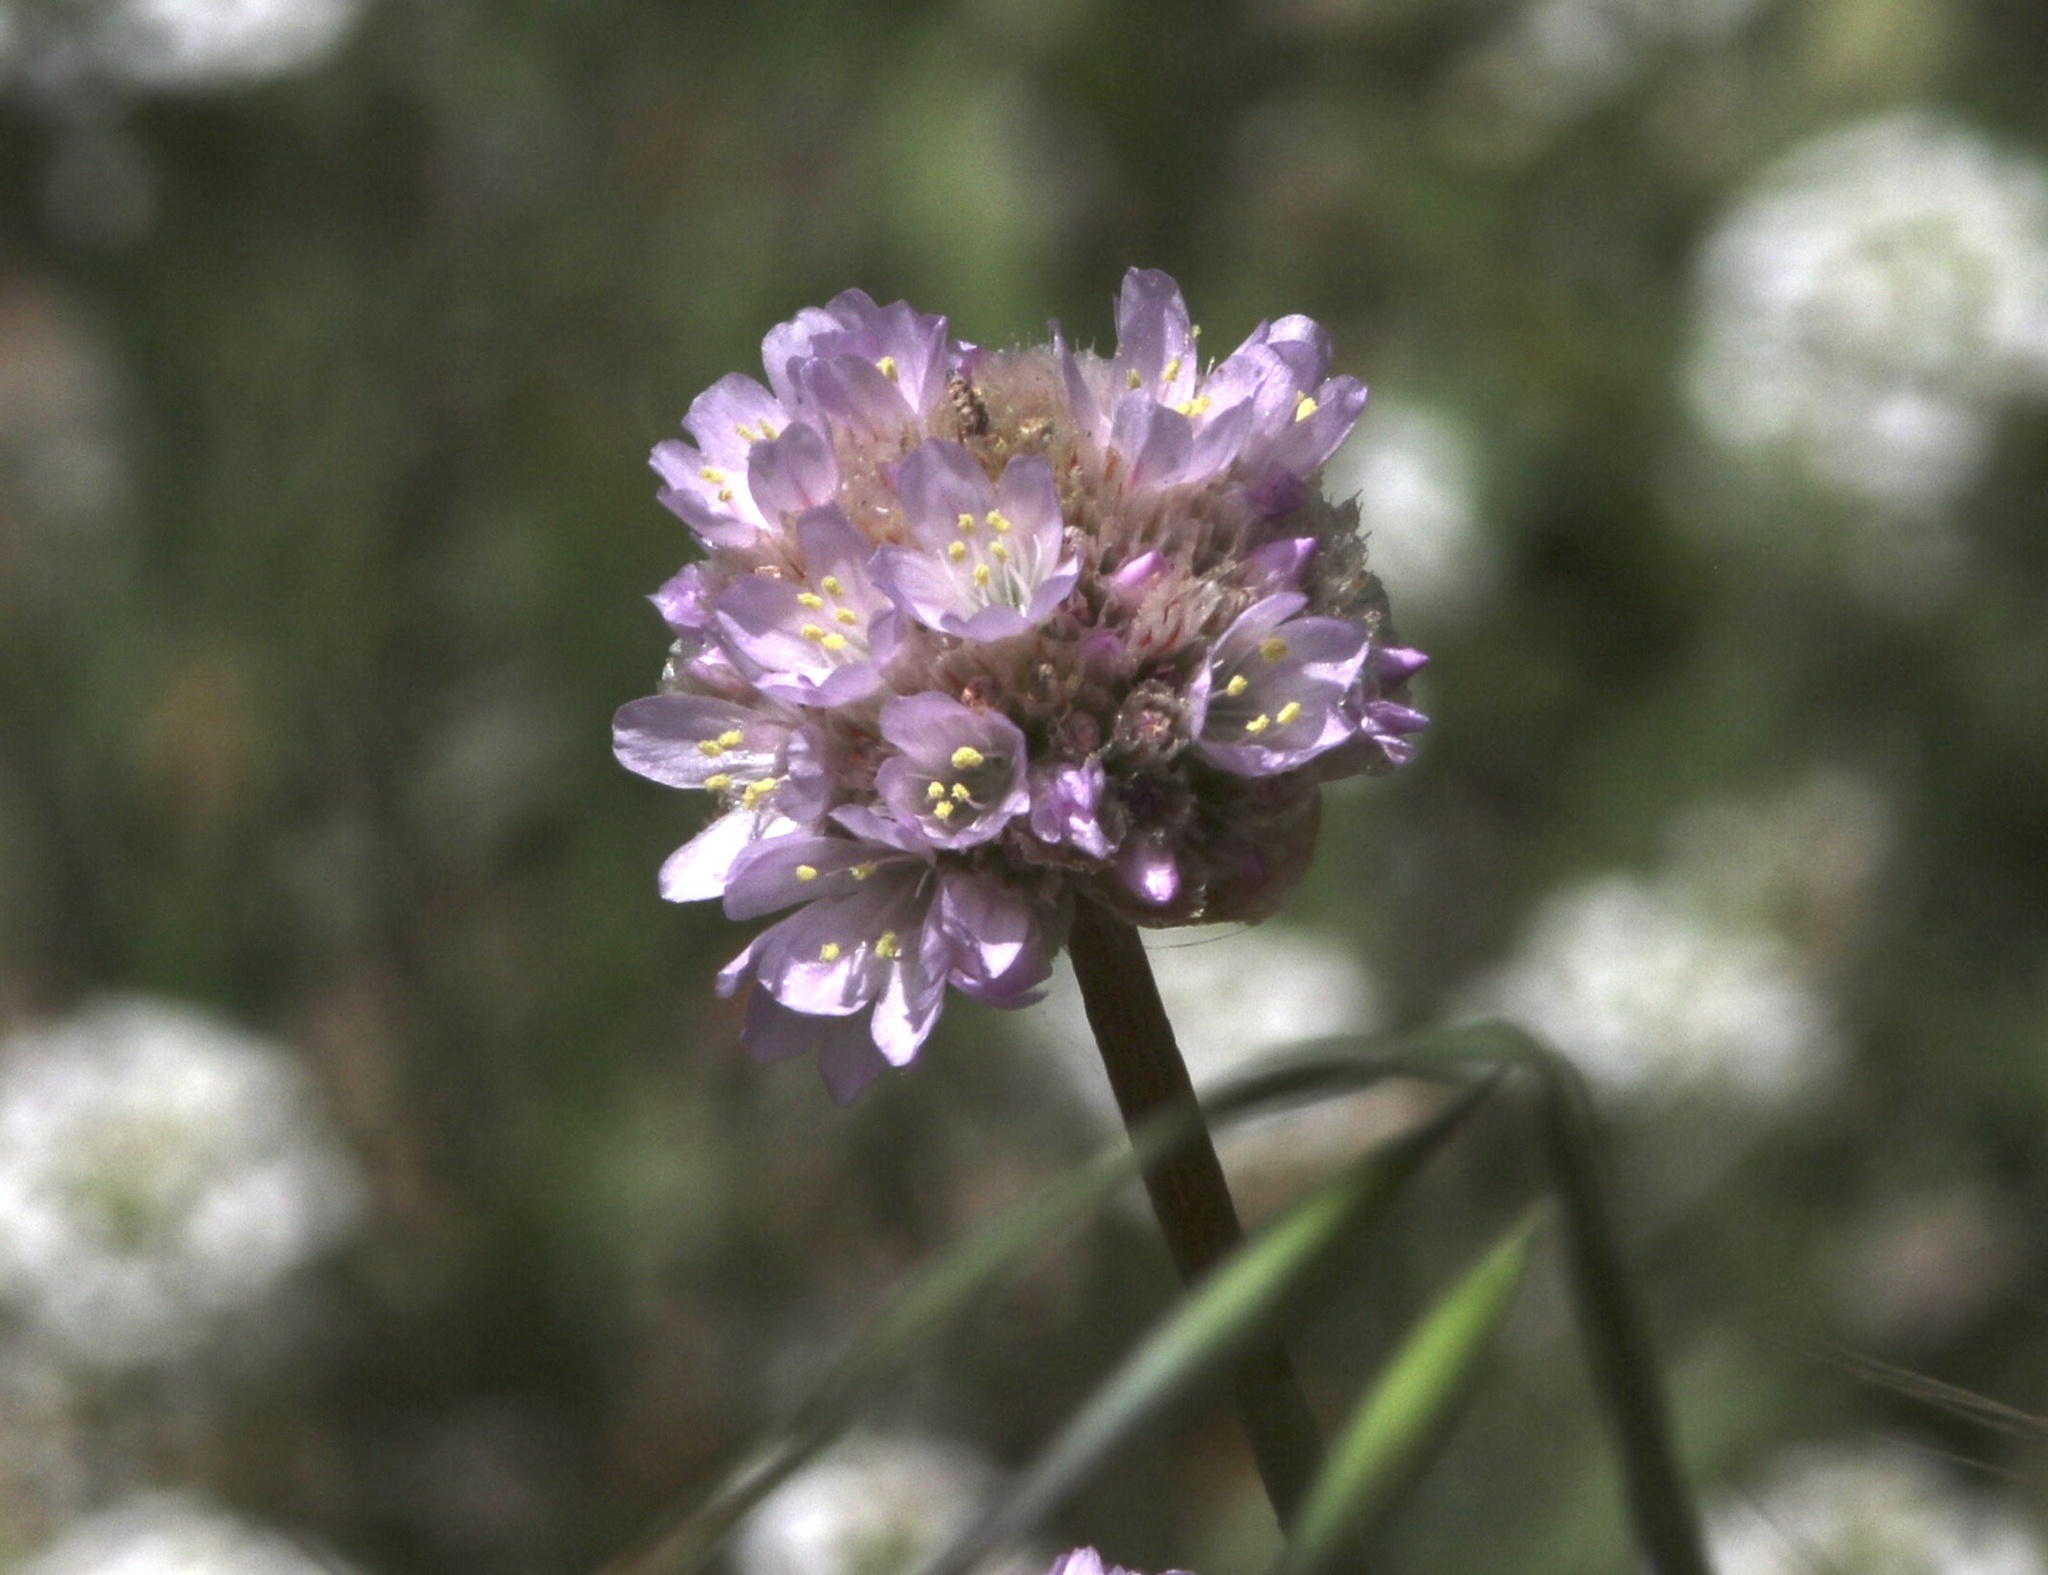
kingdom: Plantae
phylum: Tracheophyta
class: Magnoliopsida
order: Caryophyllales
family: Plumbaginaceae
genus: Armeria
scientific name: Armeria maritima
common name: Thrift
